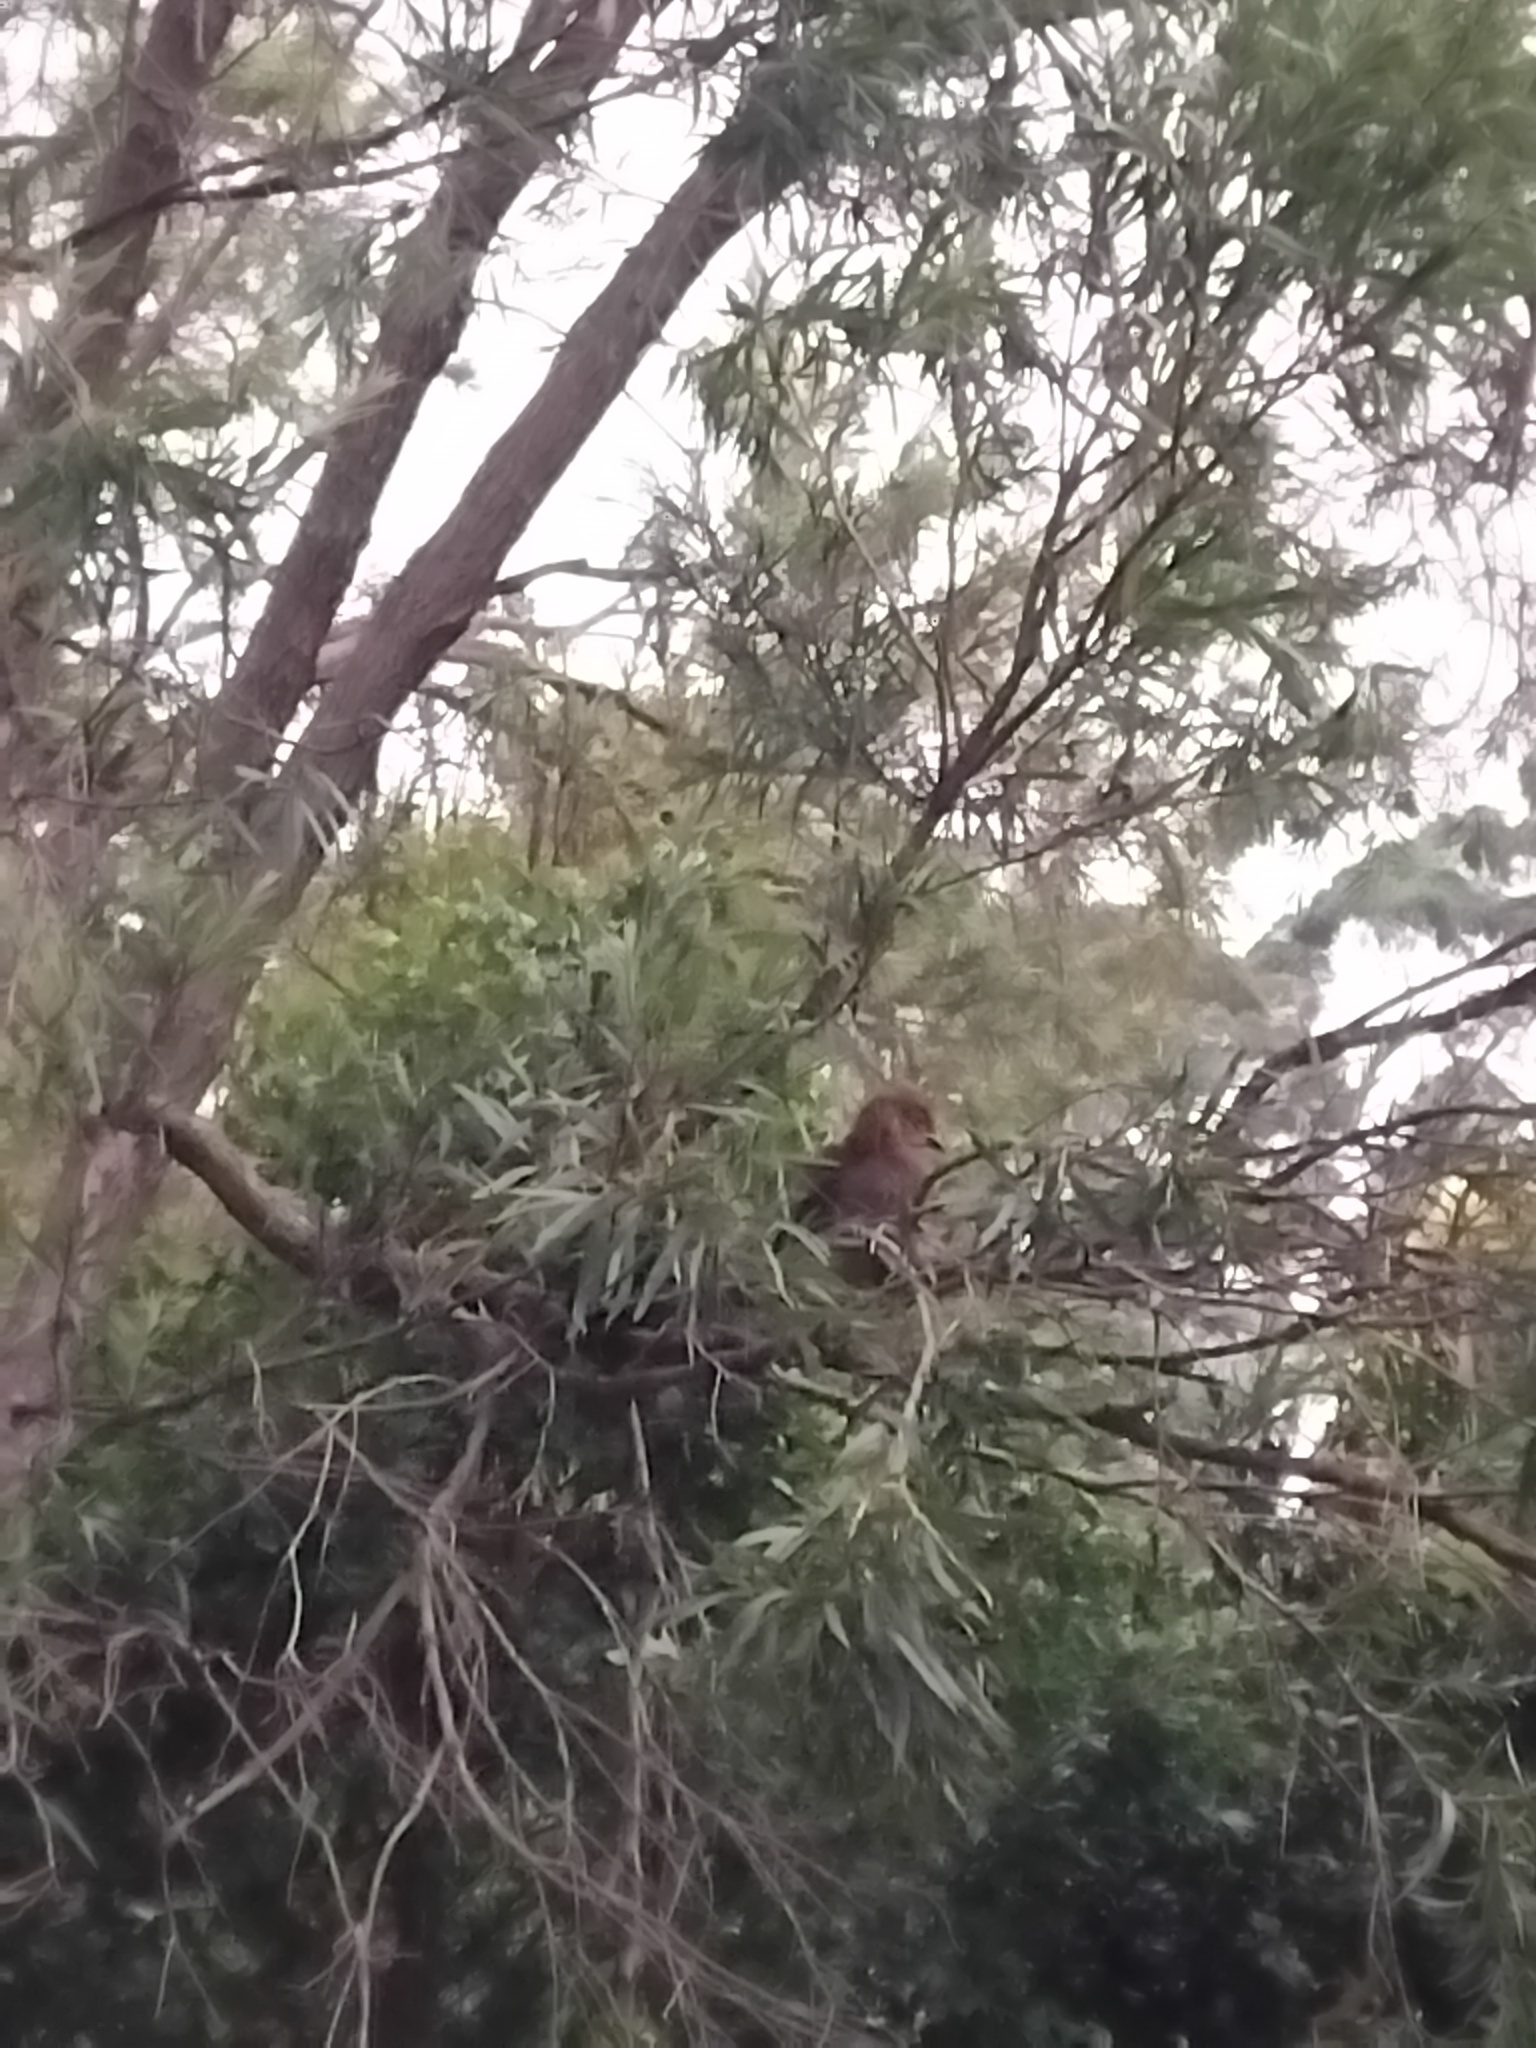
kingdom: Animalia
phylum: Chordata
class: Aves
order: Galliformes
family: Megapodiidae
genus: Alectura
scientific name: Alectura lathami
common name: Australian brushturkey
